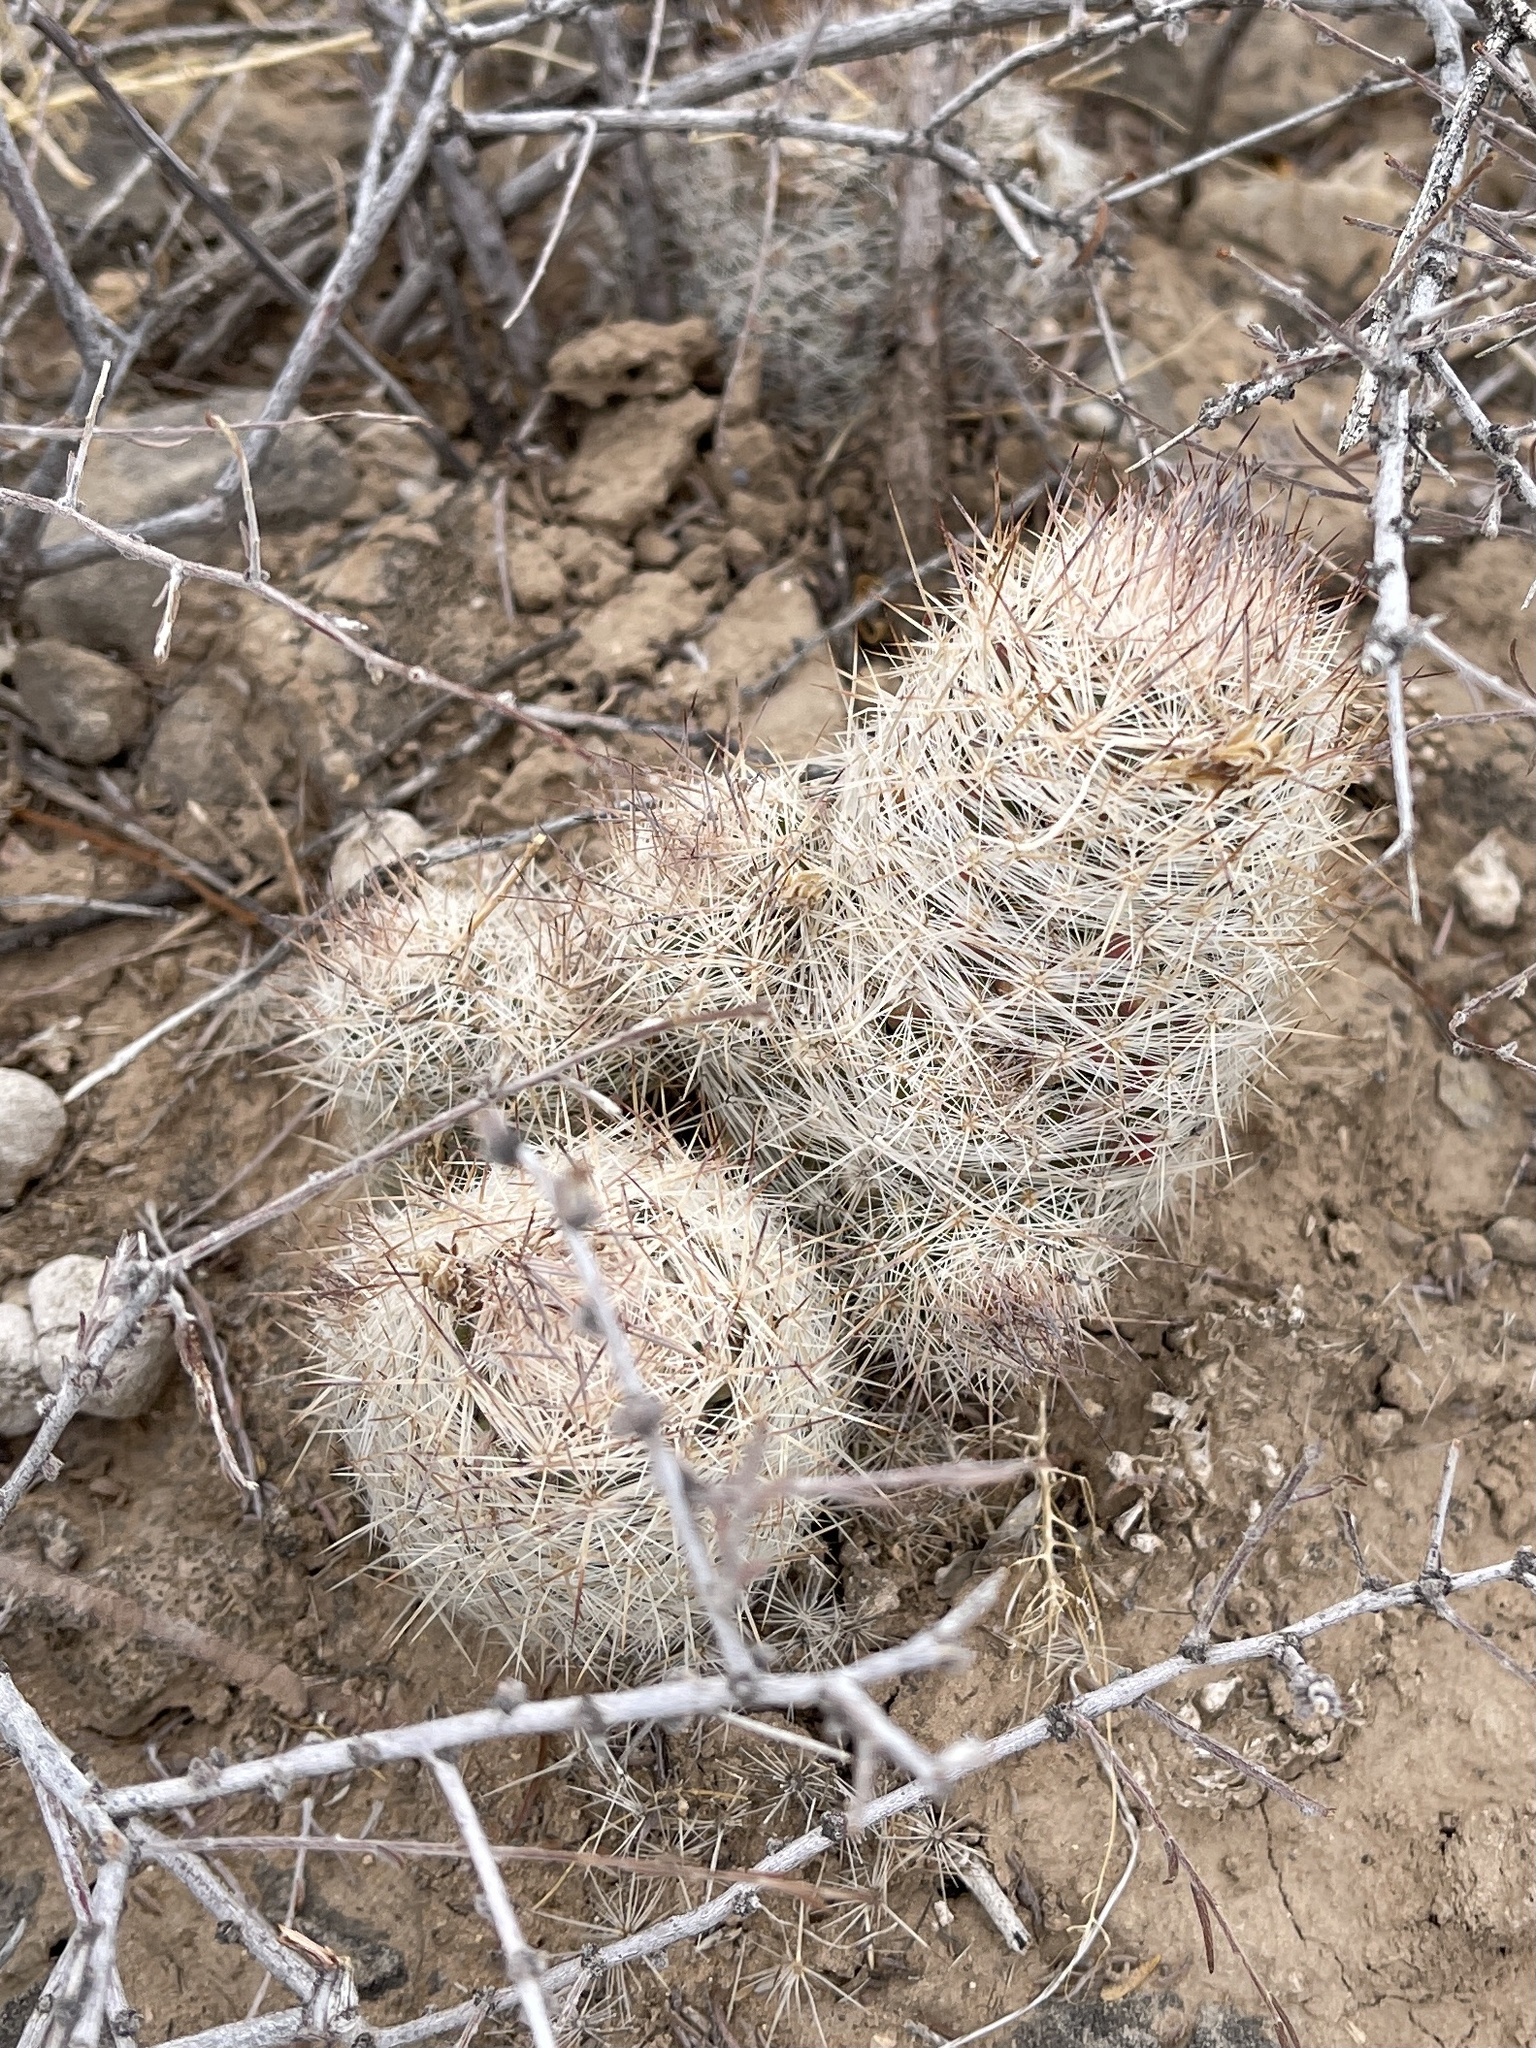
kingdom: Plantae
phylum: Tracheophyta
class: Magnoliopsida
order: Caryophyllales
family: Cactaceae
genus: Pelecyphora
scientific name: Pelecyphora tuberculosa
